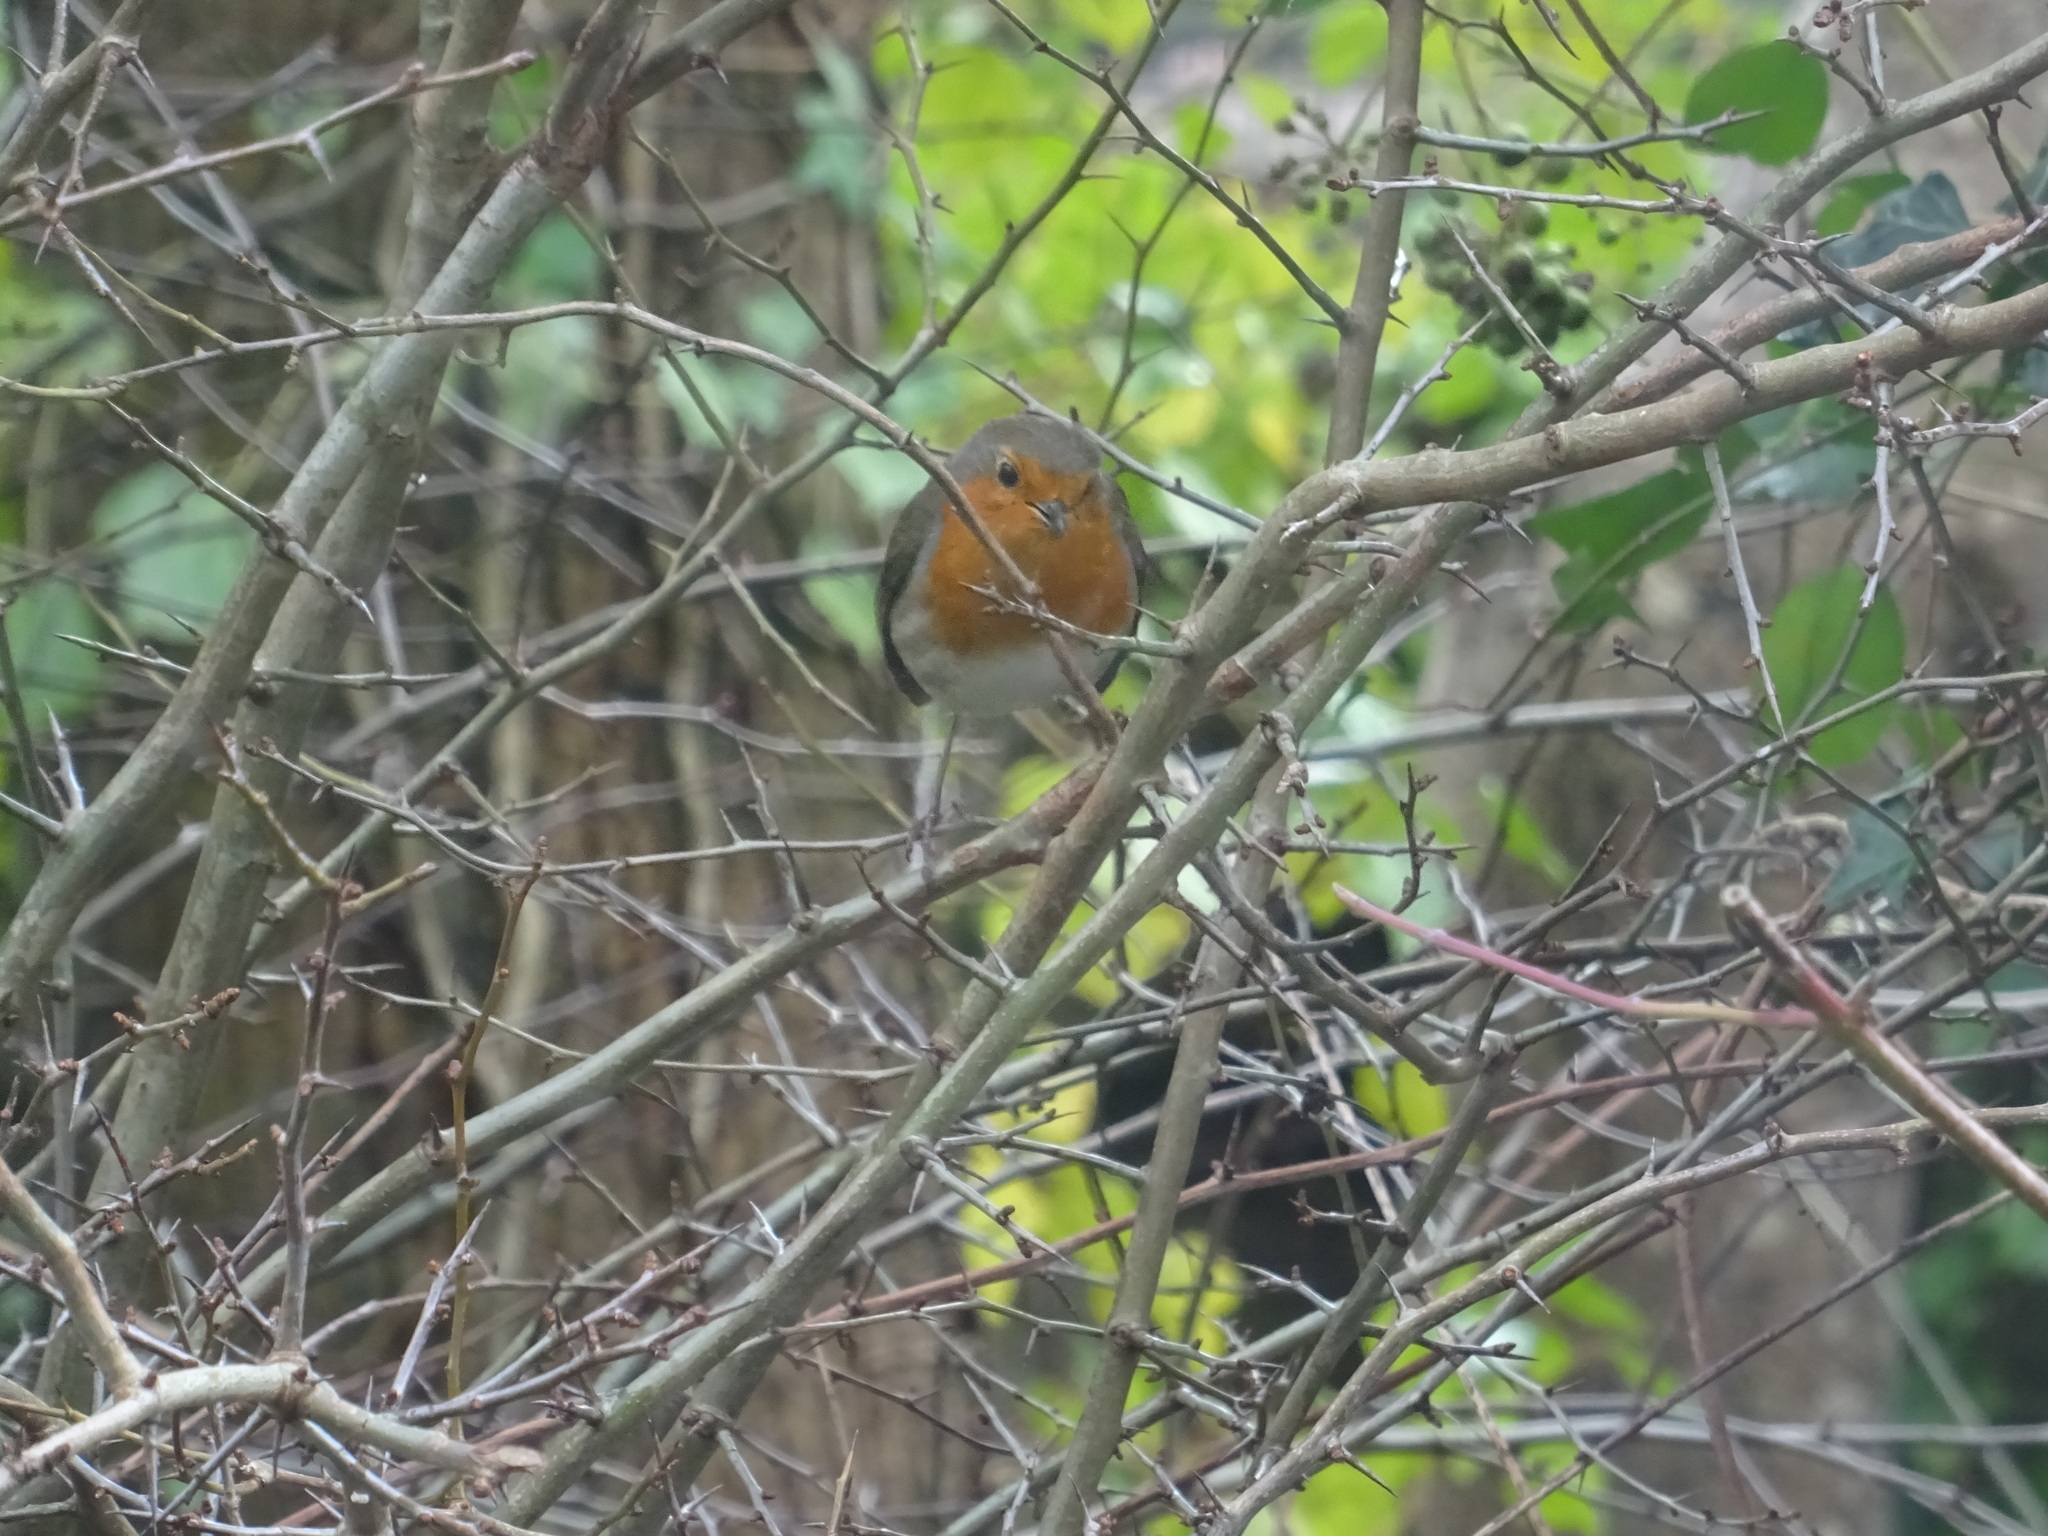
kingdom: Animalia
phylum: Chordata
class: Aves
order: Passeriformes
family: Muscicapidae
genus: Erithacus
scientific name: Erithacus rubecula
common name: European robin
